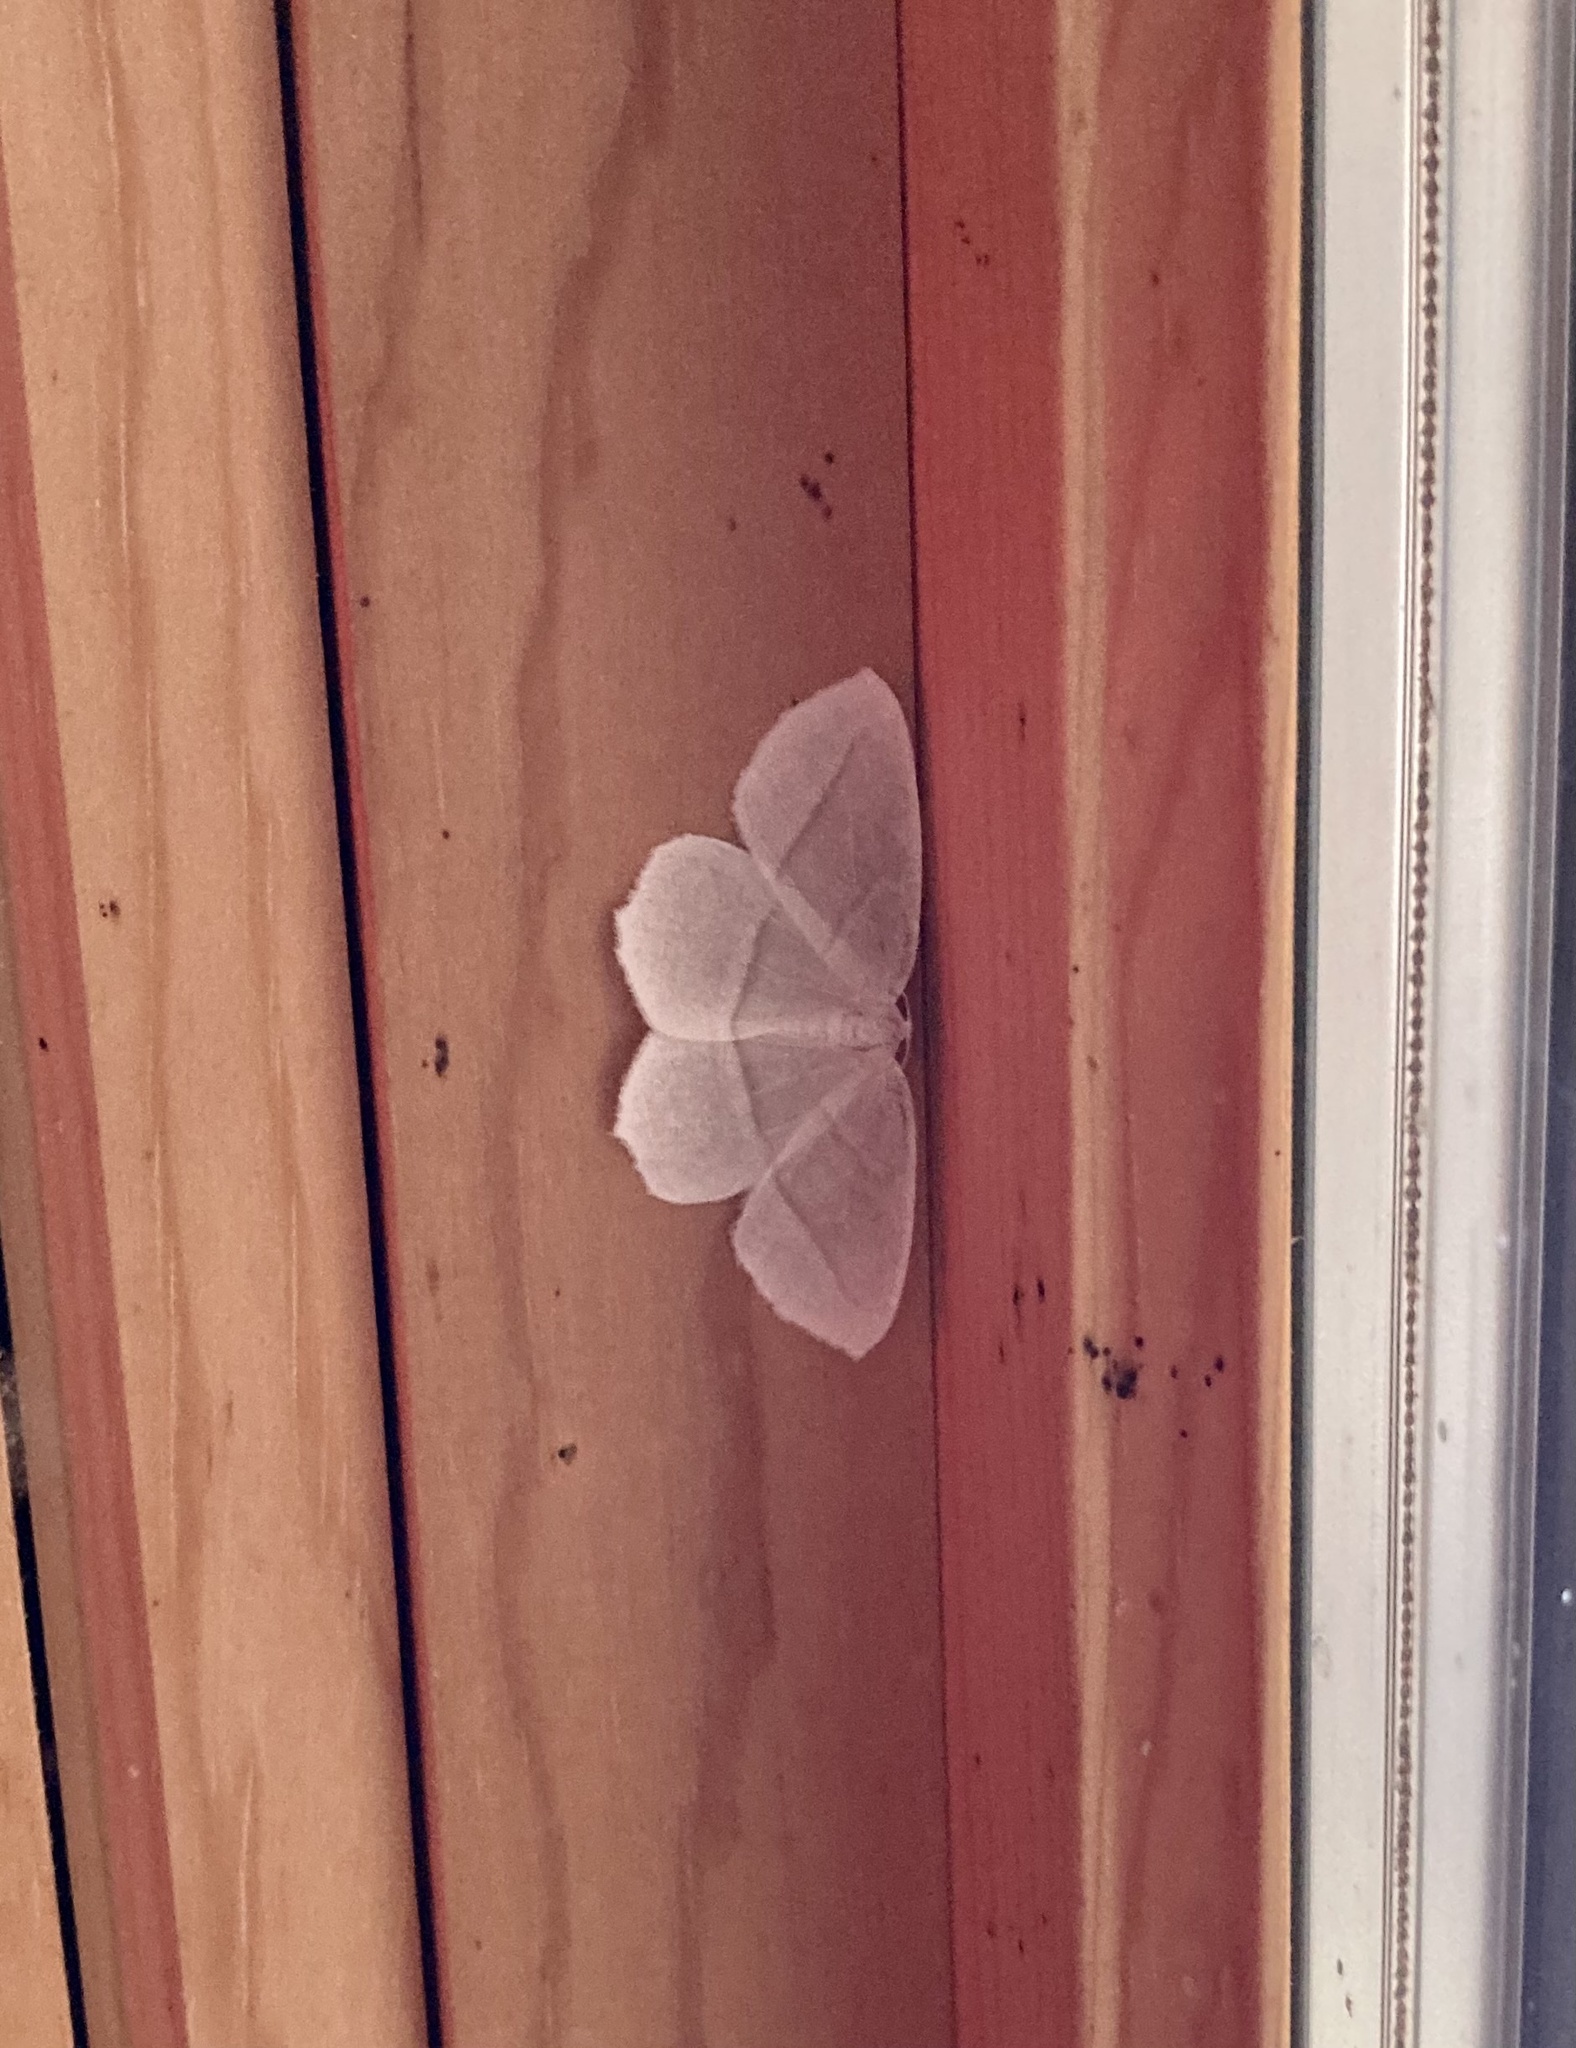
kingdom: Animalia
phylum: Arthropoda
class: Insecta
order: Lepidoptera
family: Geometridae
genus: Campaea
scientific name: Campaea perlata
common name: Fringed looper
